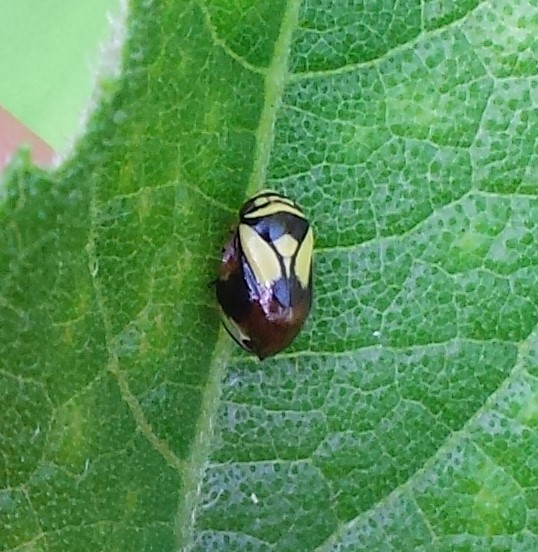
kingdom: Animalia
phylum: Arthropoda
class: Insecta
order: Hemiptera
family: Clastopteridae
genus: Clastoptera
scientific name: Clastoptera proteus
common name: Dogwood spittlebug
